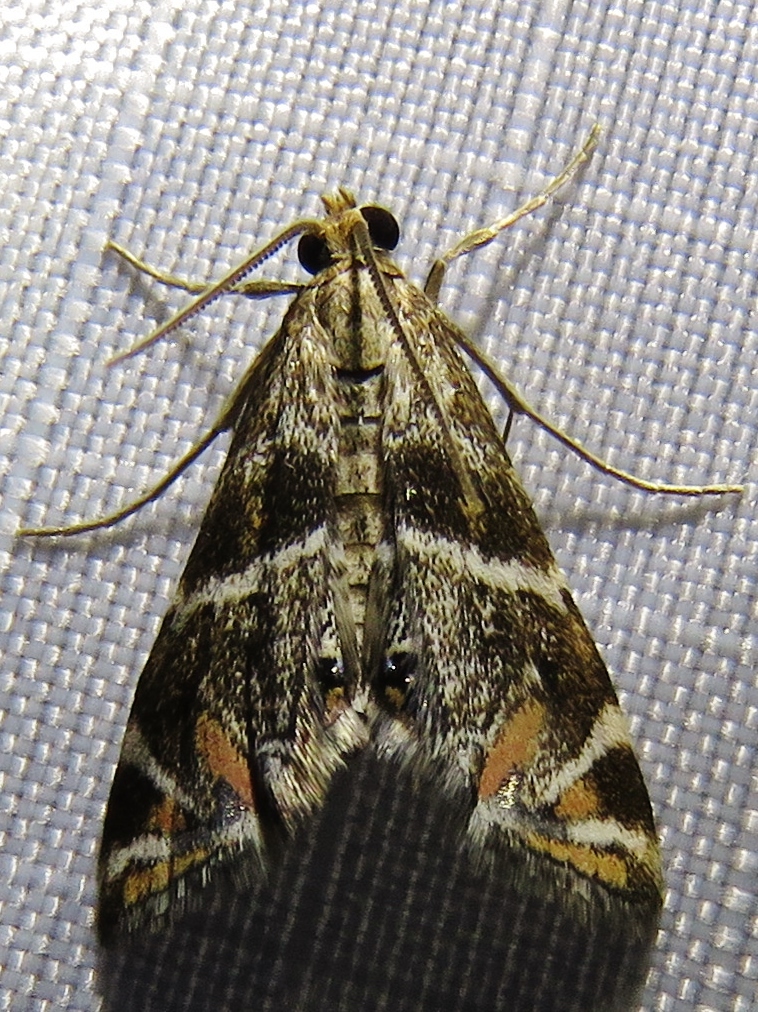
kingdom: Animalia
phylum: Arthropoda
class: Insecta
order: Lepidoptera
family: Crambidae
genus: Petrophila
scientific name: Petrophila jaliscalis
